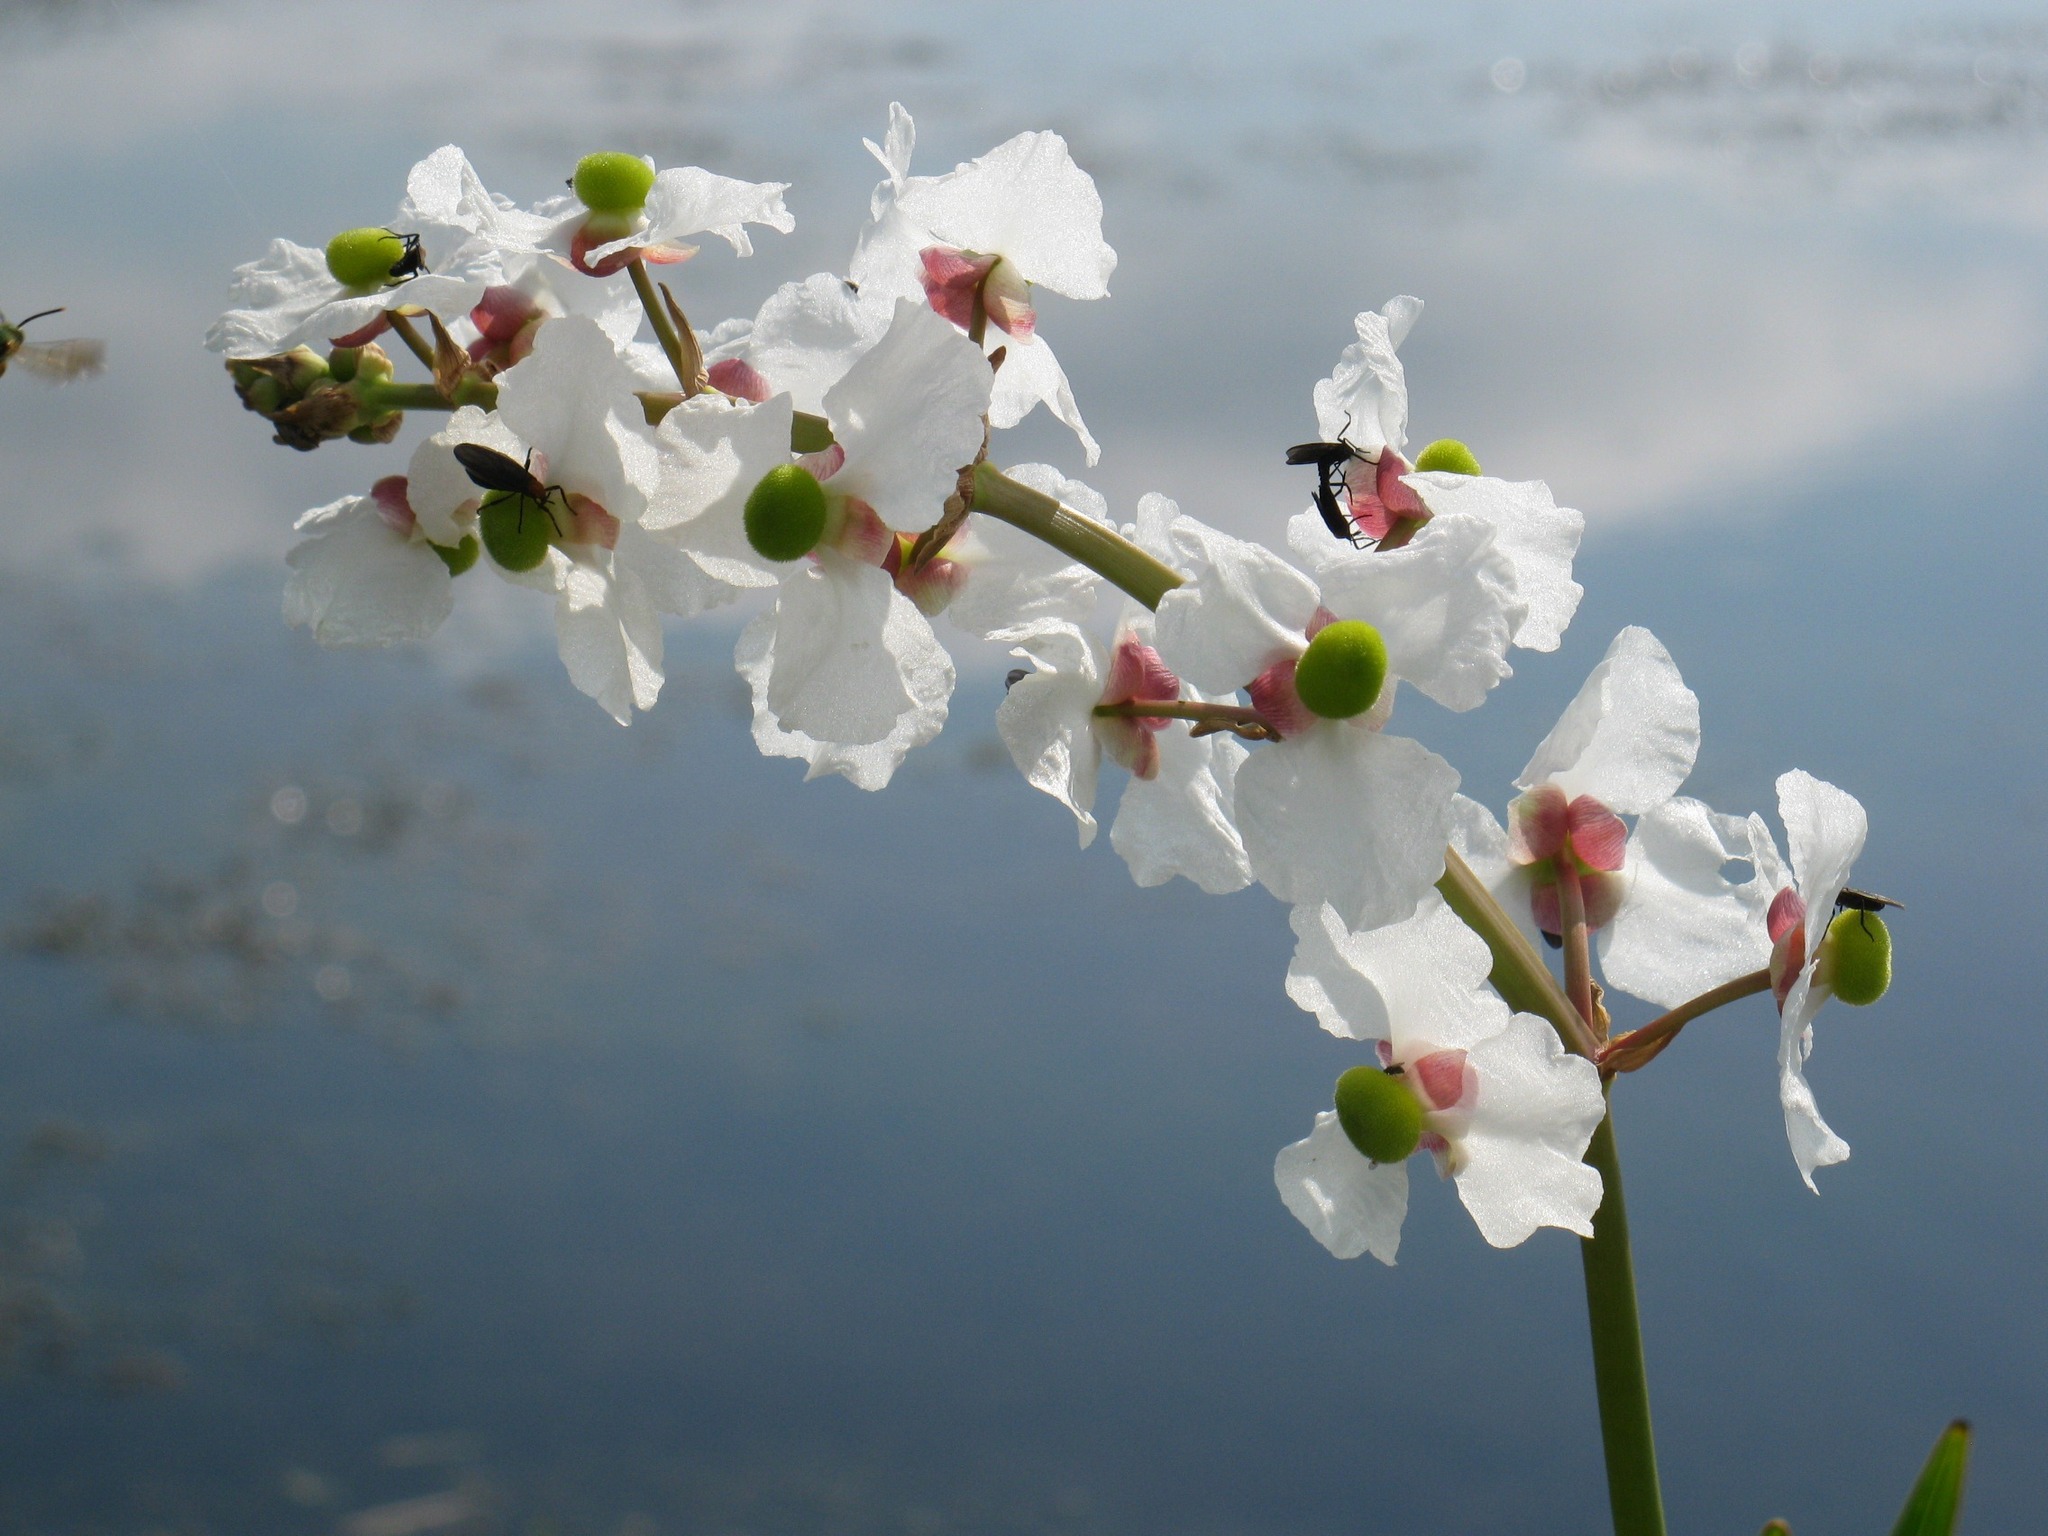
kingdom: Plantae
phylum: Tracheophyta
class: Liliopsida
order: Alismatales
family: Alismataceae
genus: Sagittaria
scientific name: Sagittaria lancifolia
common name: Lance-leaf arrowhead
